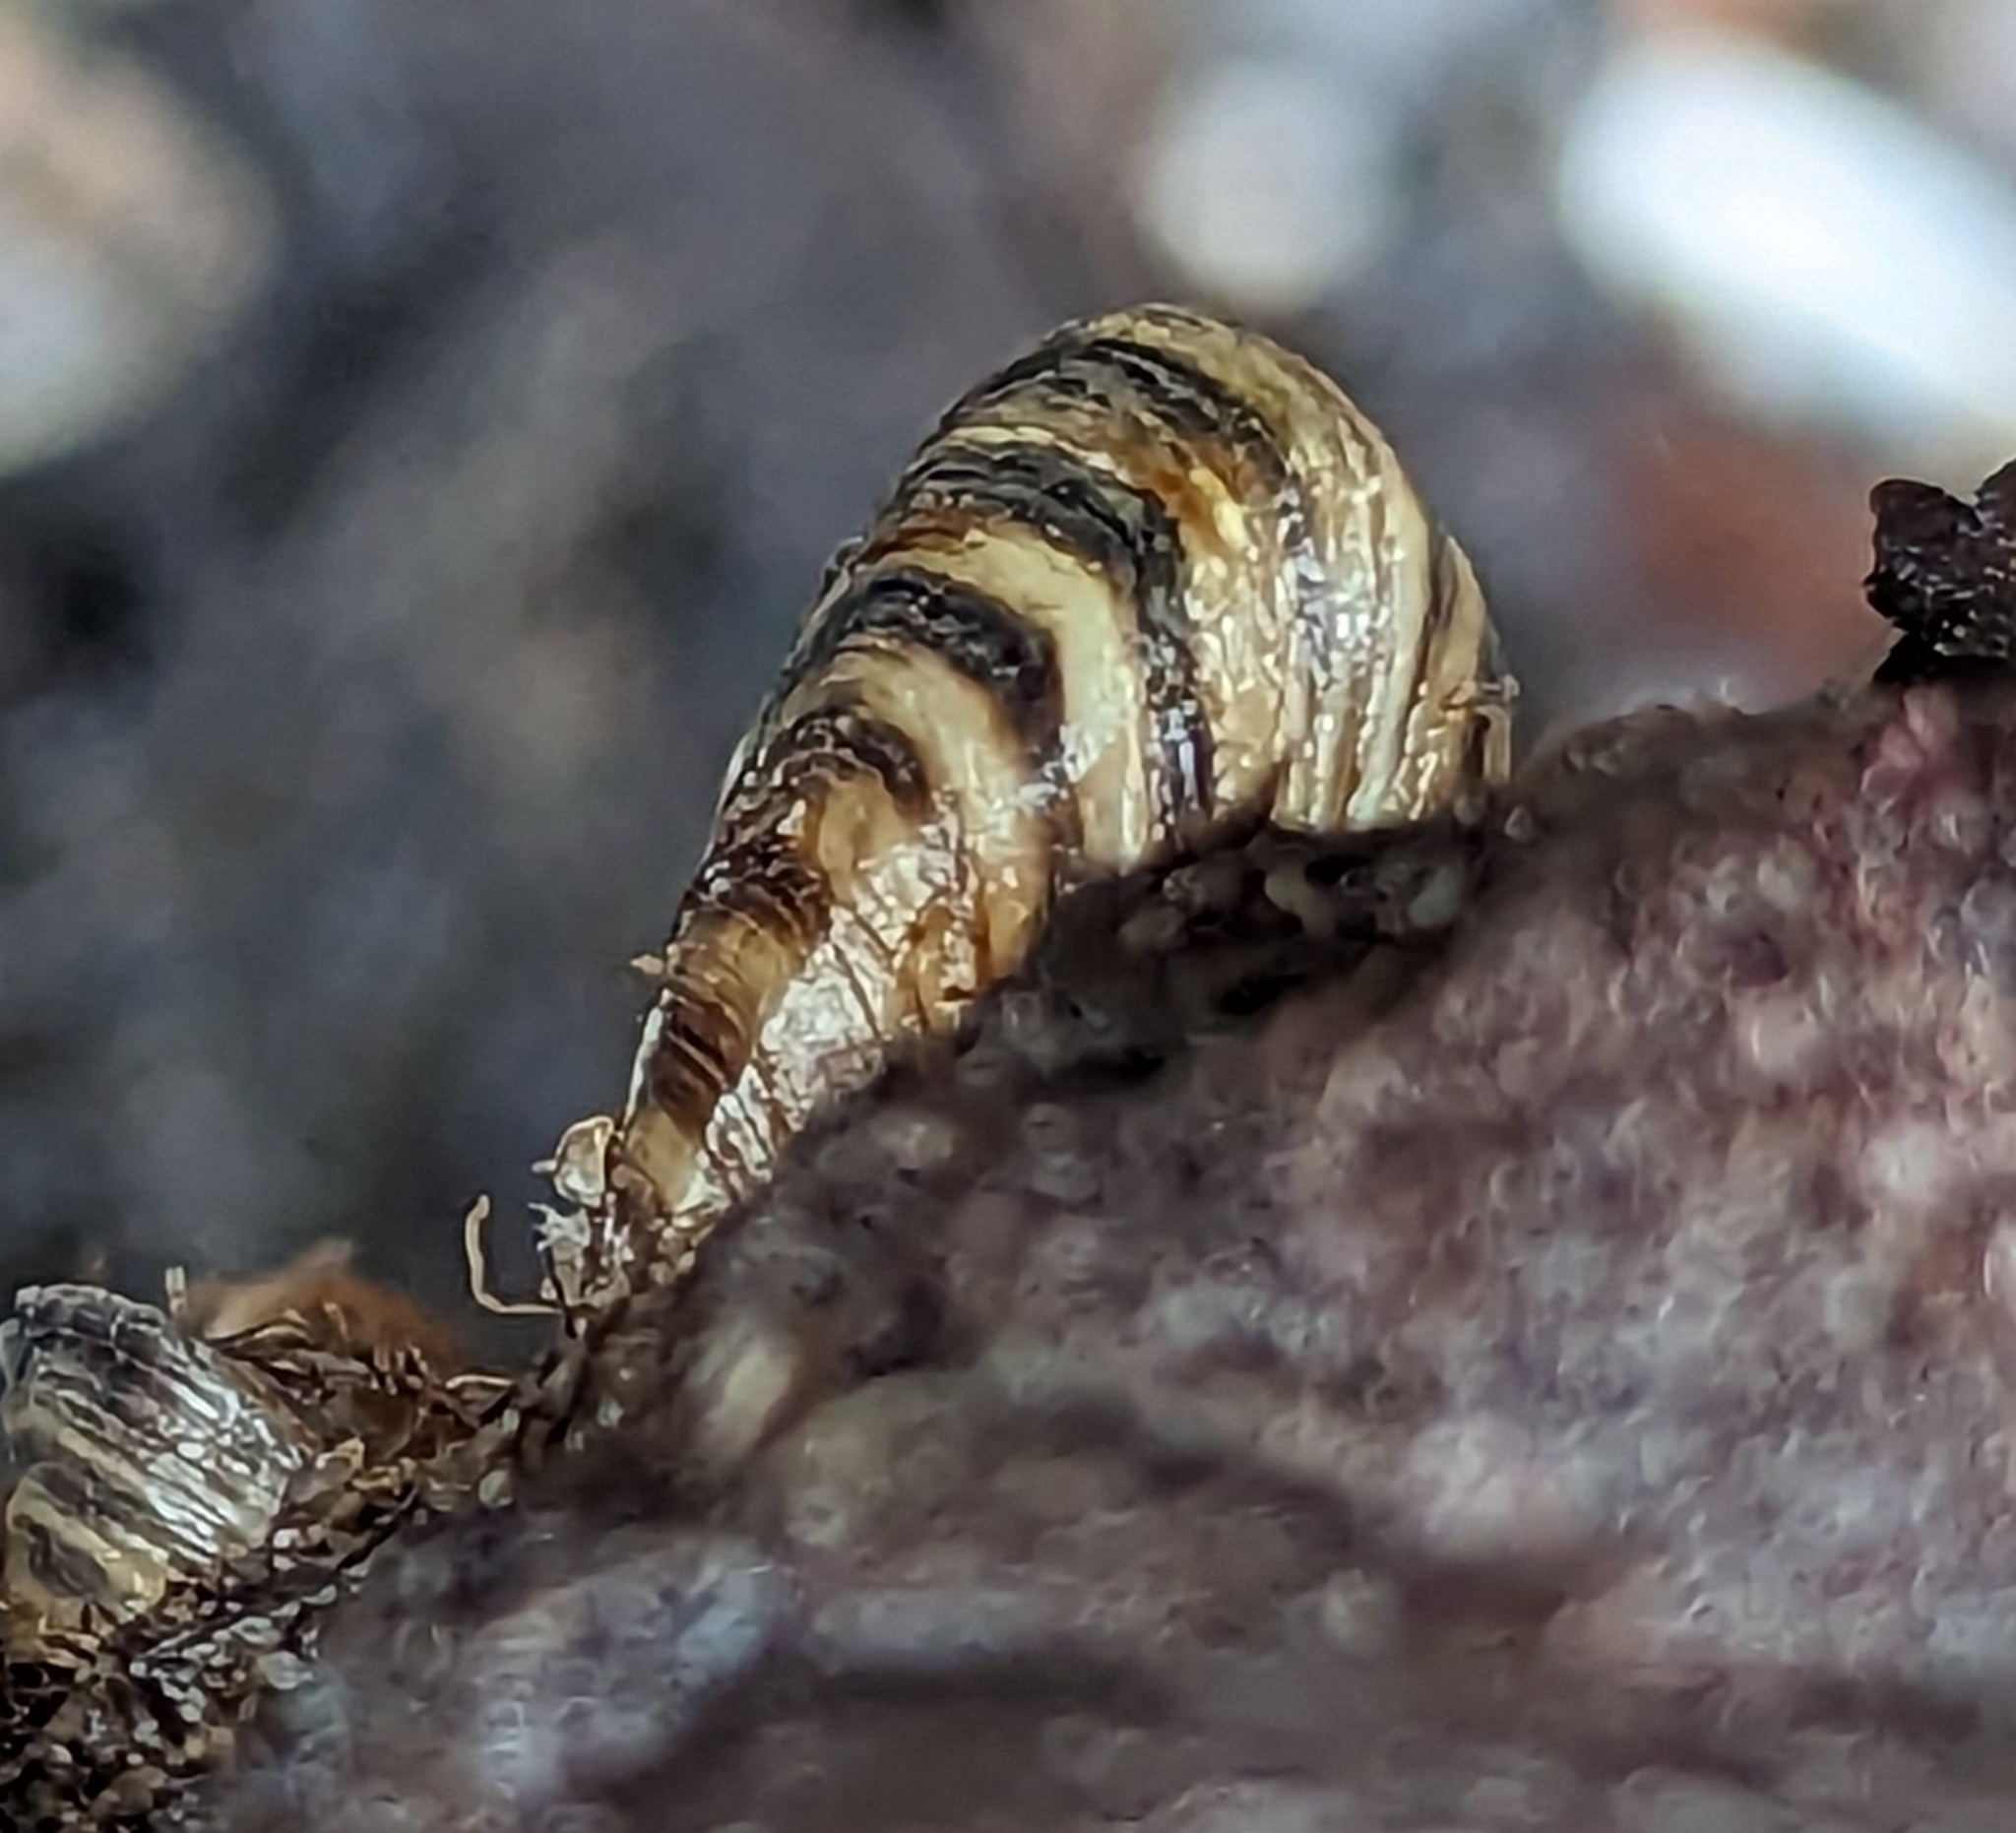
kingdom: Animalia
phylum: Mollusca
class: Bivalvia
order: Myida
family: Dreissenidae
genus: Dreissena
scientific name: Dreissena bugensis
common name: Quagga mussel
